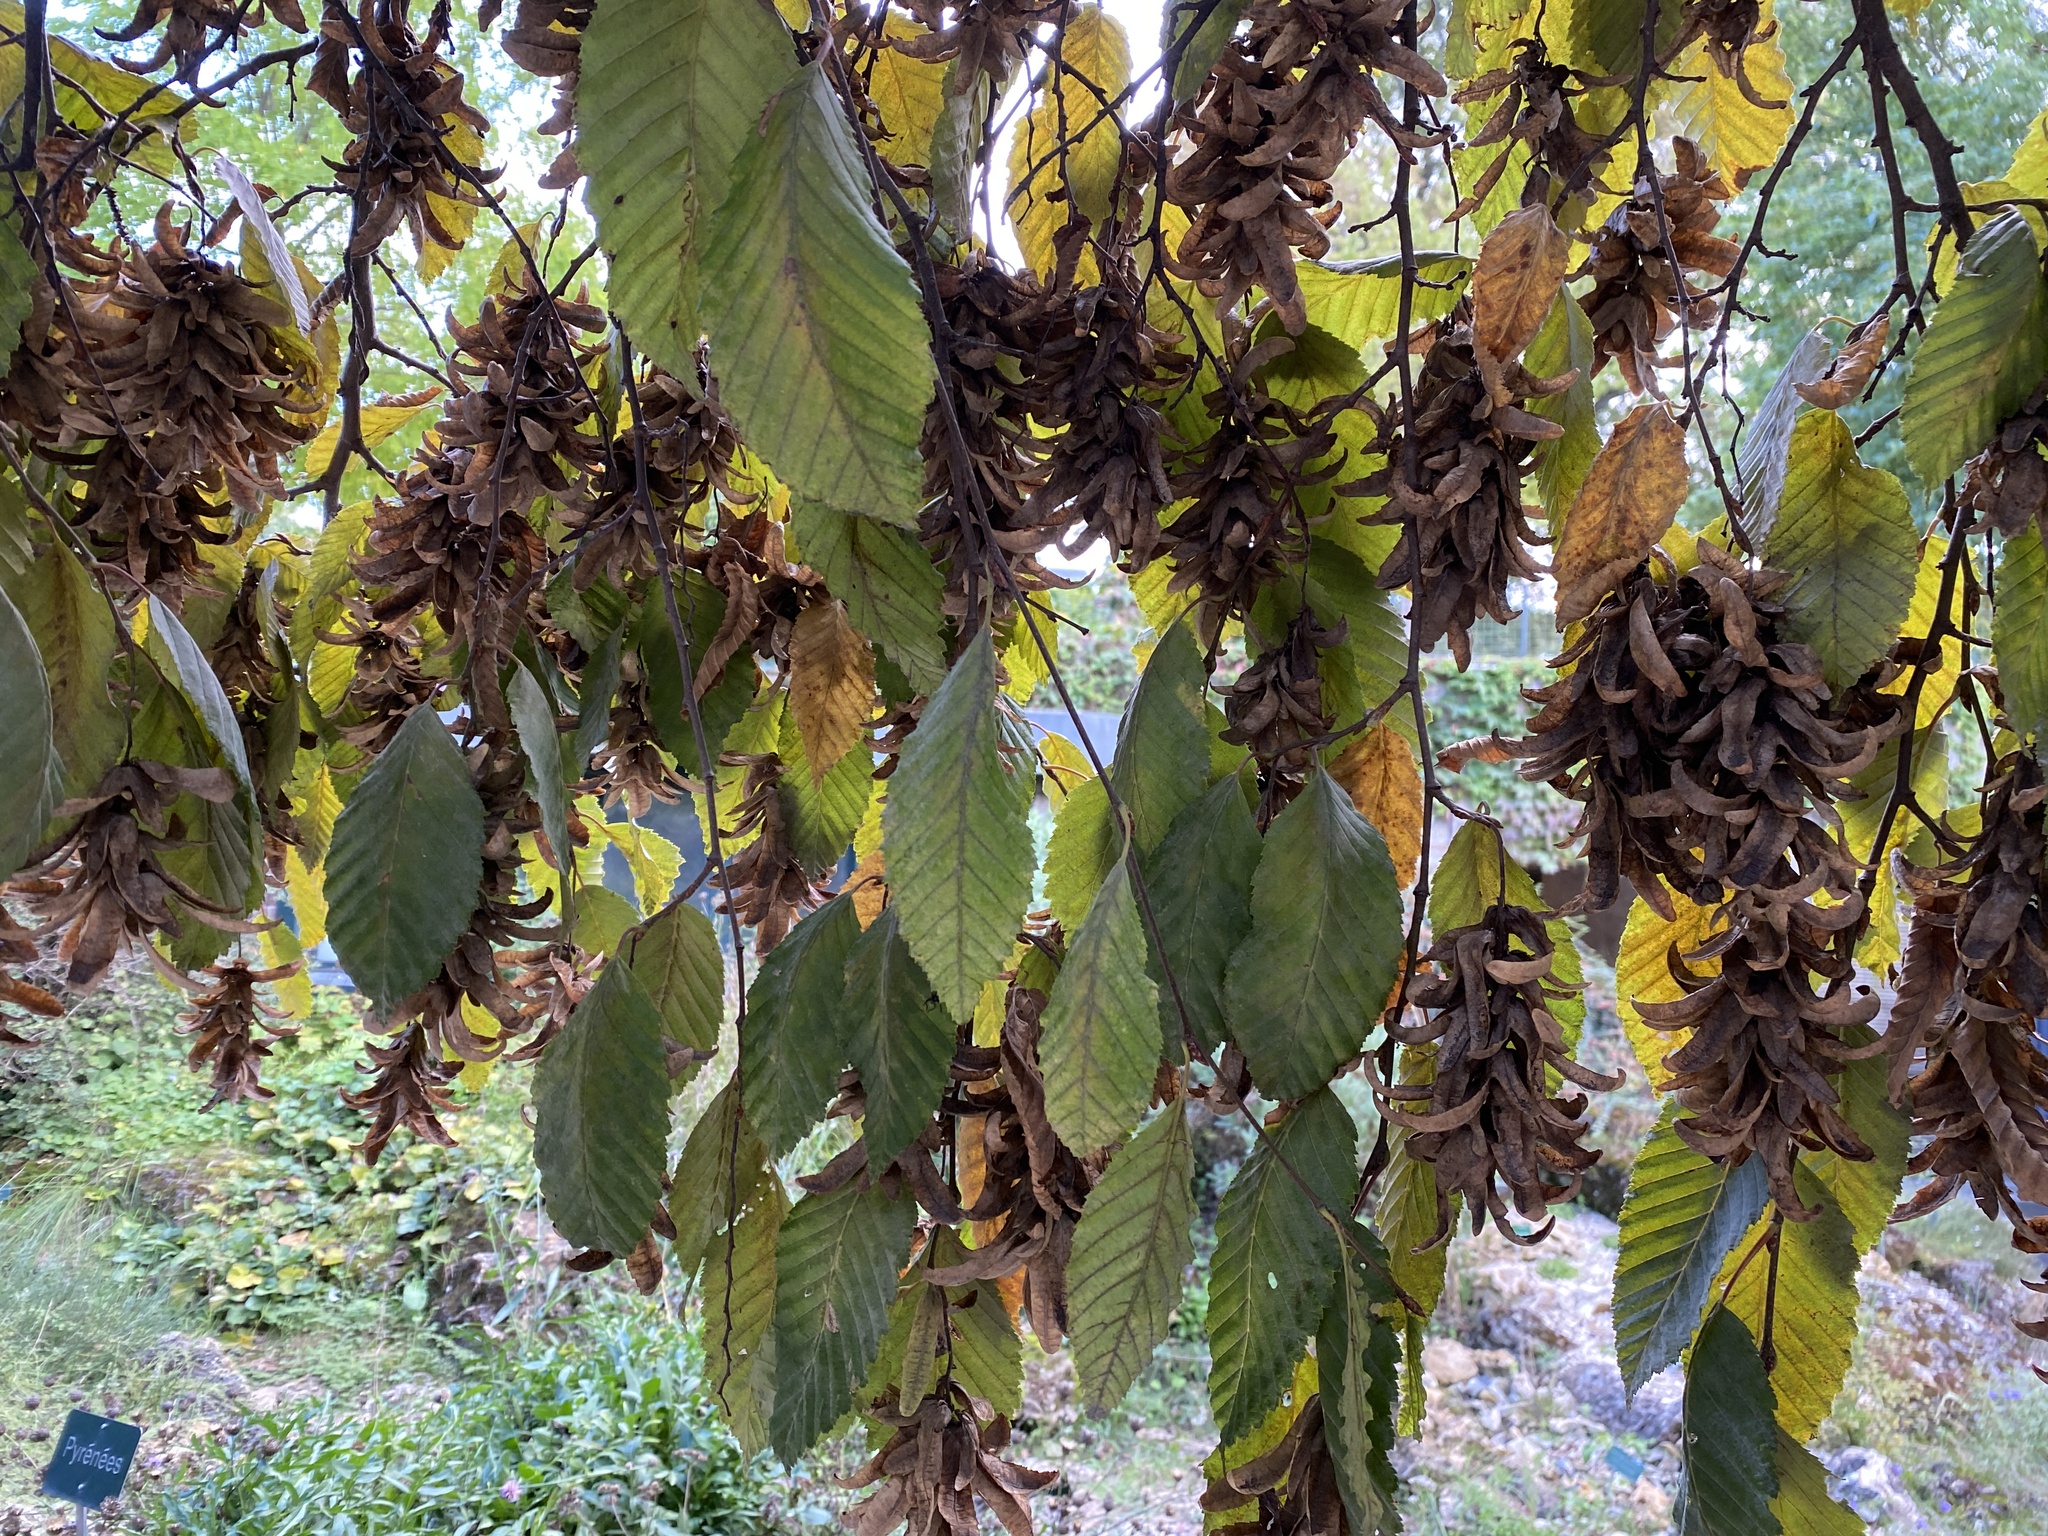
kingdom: Plantae
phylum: Tracheophyta
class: Magnoliopsida
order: Fagales
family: Betulaceae
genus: Carpinus
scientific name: Carpinus betulus
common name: Hornbeam
